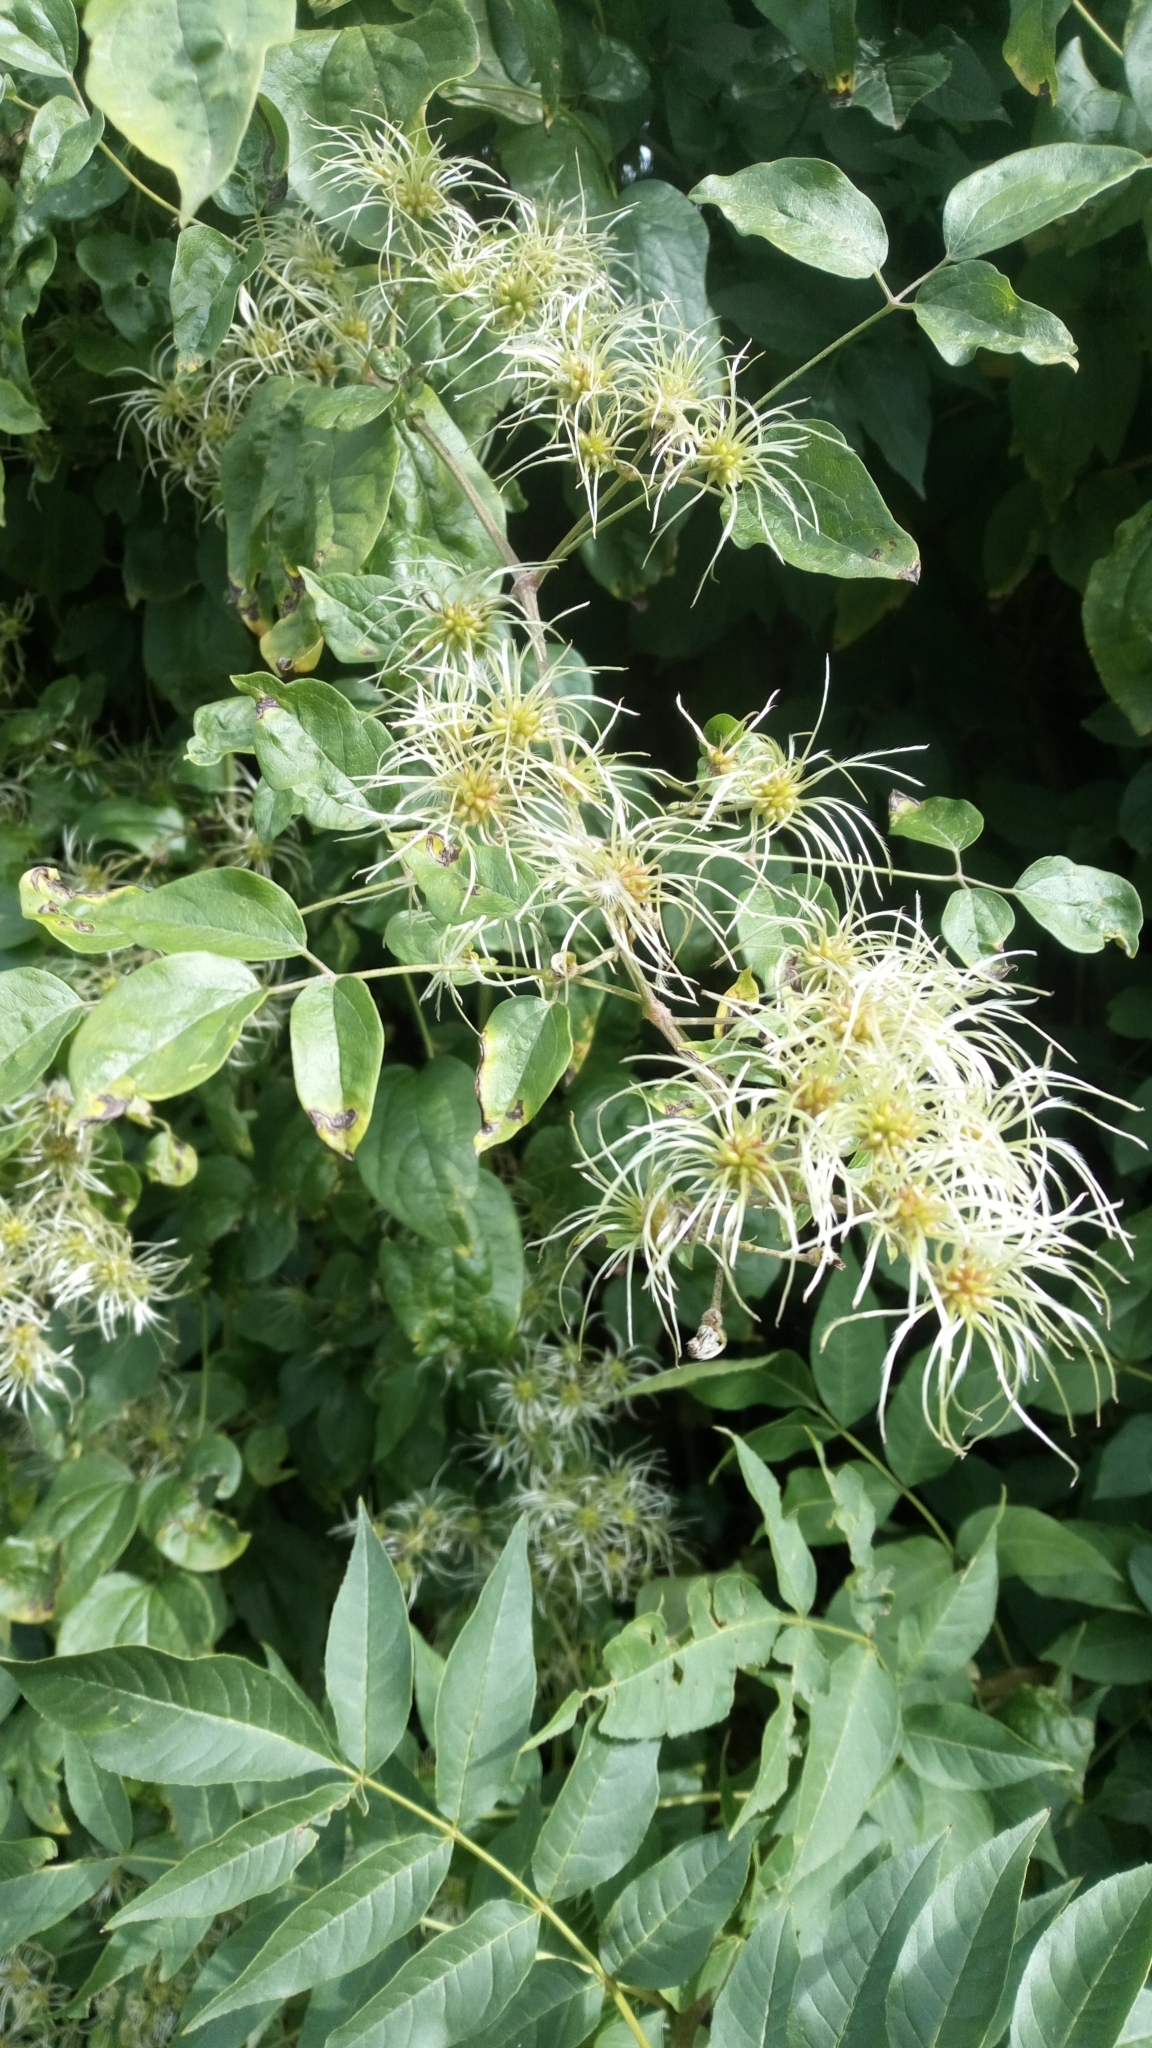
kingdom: Plantae
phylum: Tracheophyta
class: Magnoliopsida
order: Ranunculales
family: Ranunculaceae
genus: Clematis
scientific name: Clematis vitalba
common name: Evergreen clematis
